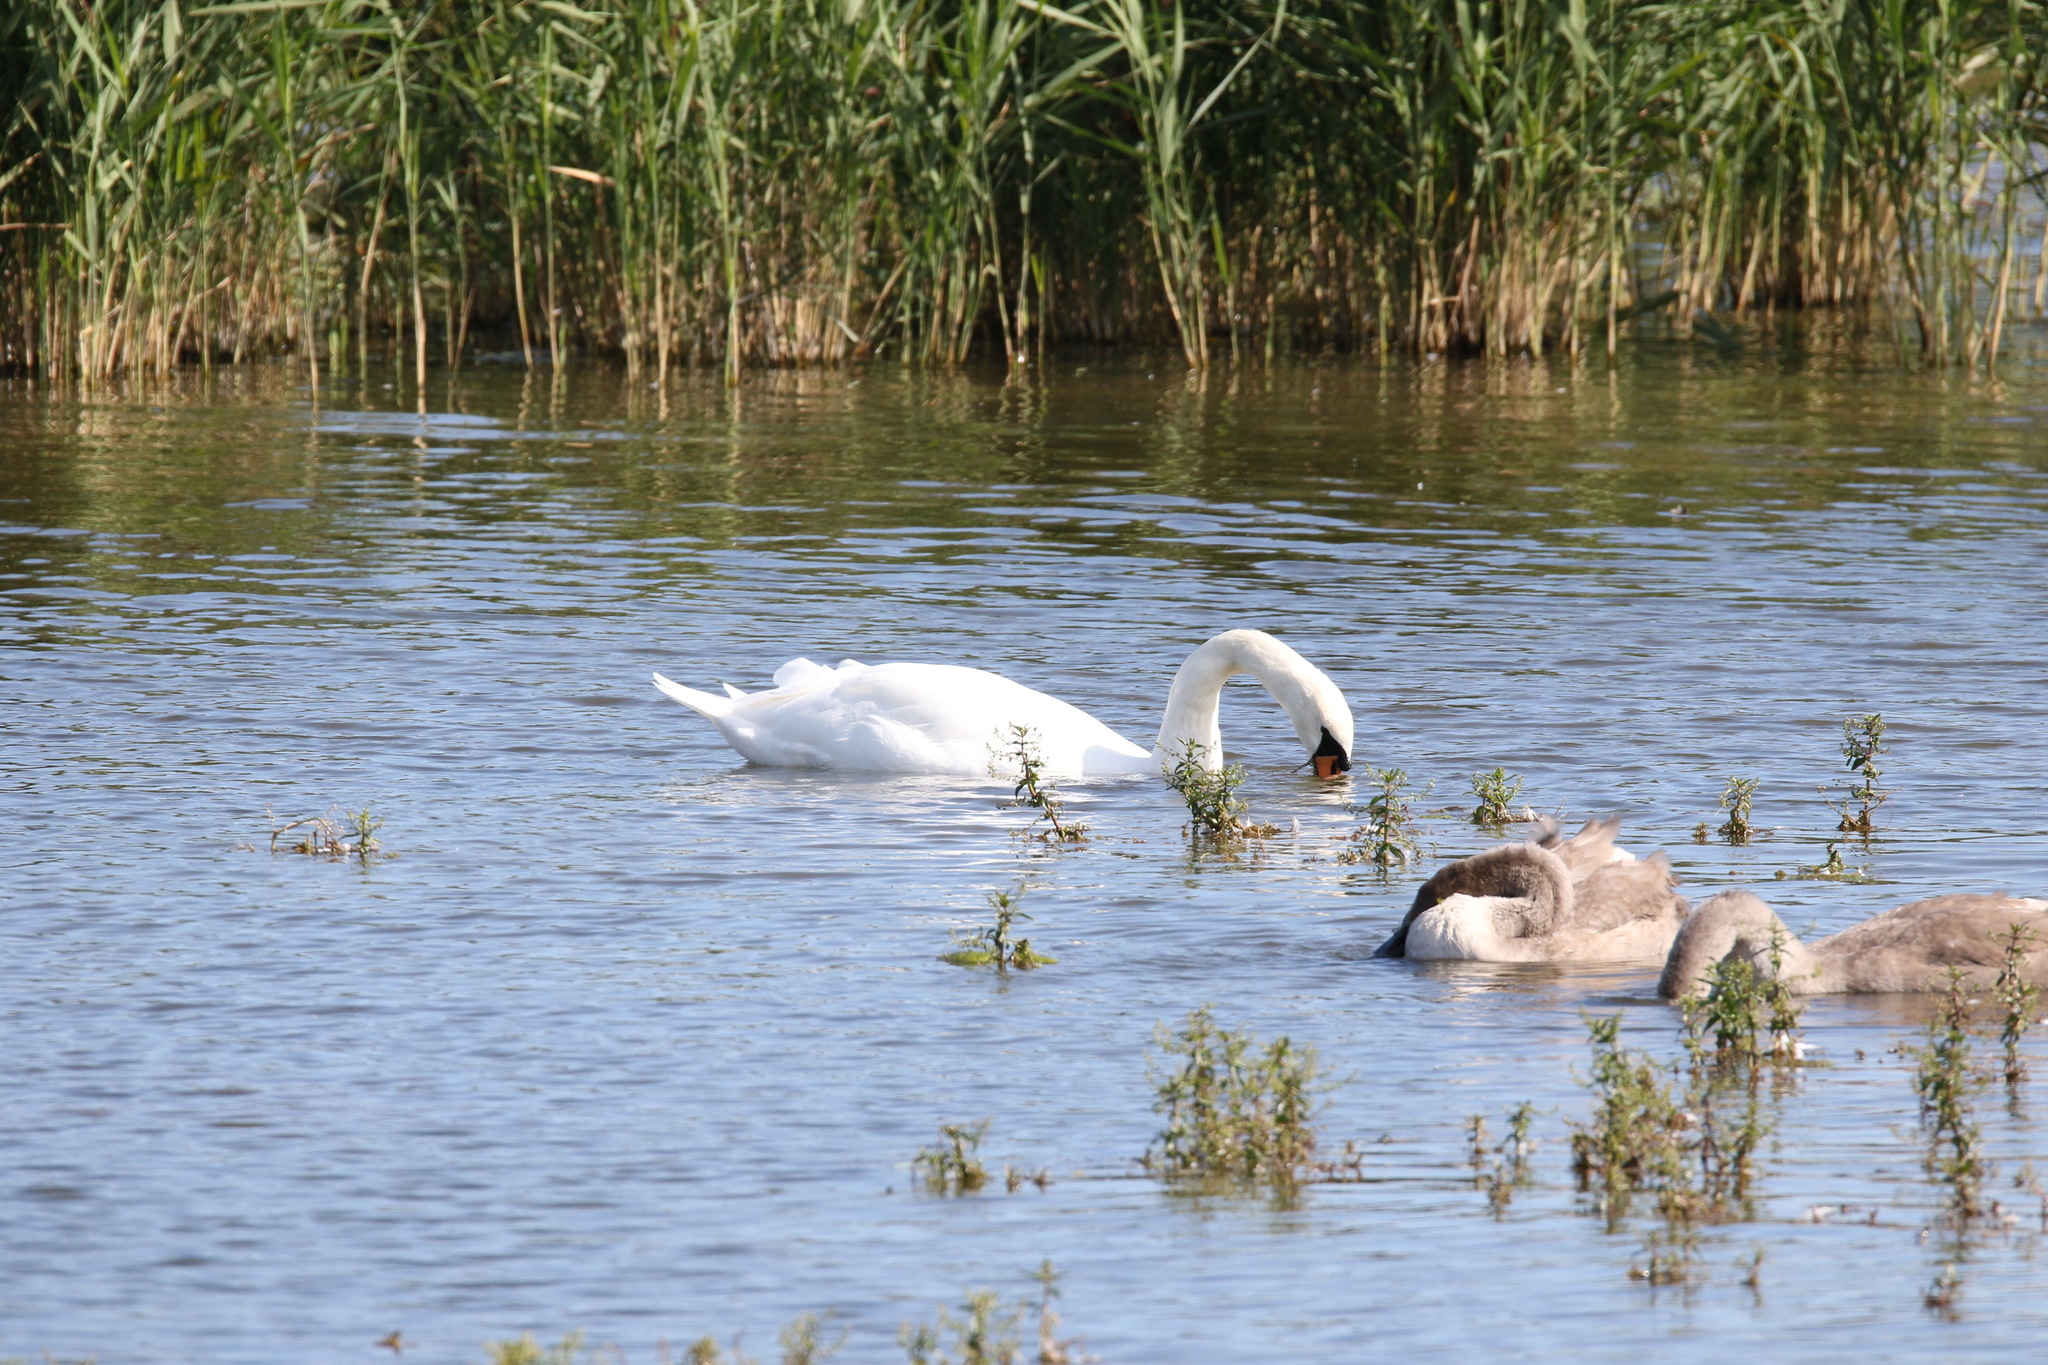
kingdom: Animalia
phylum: Chordata
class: Aves
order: Anseriformes
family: Anatidae
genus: Cygnus
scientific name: Cygnus olor
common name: Mute swan
